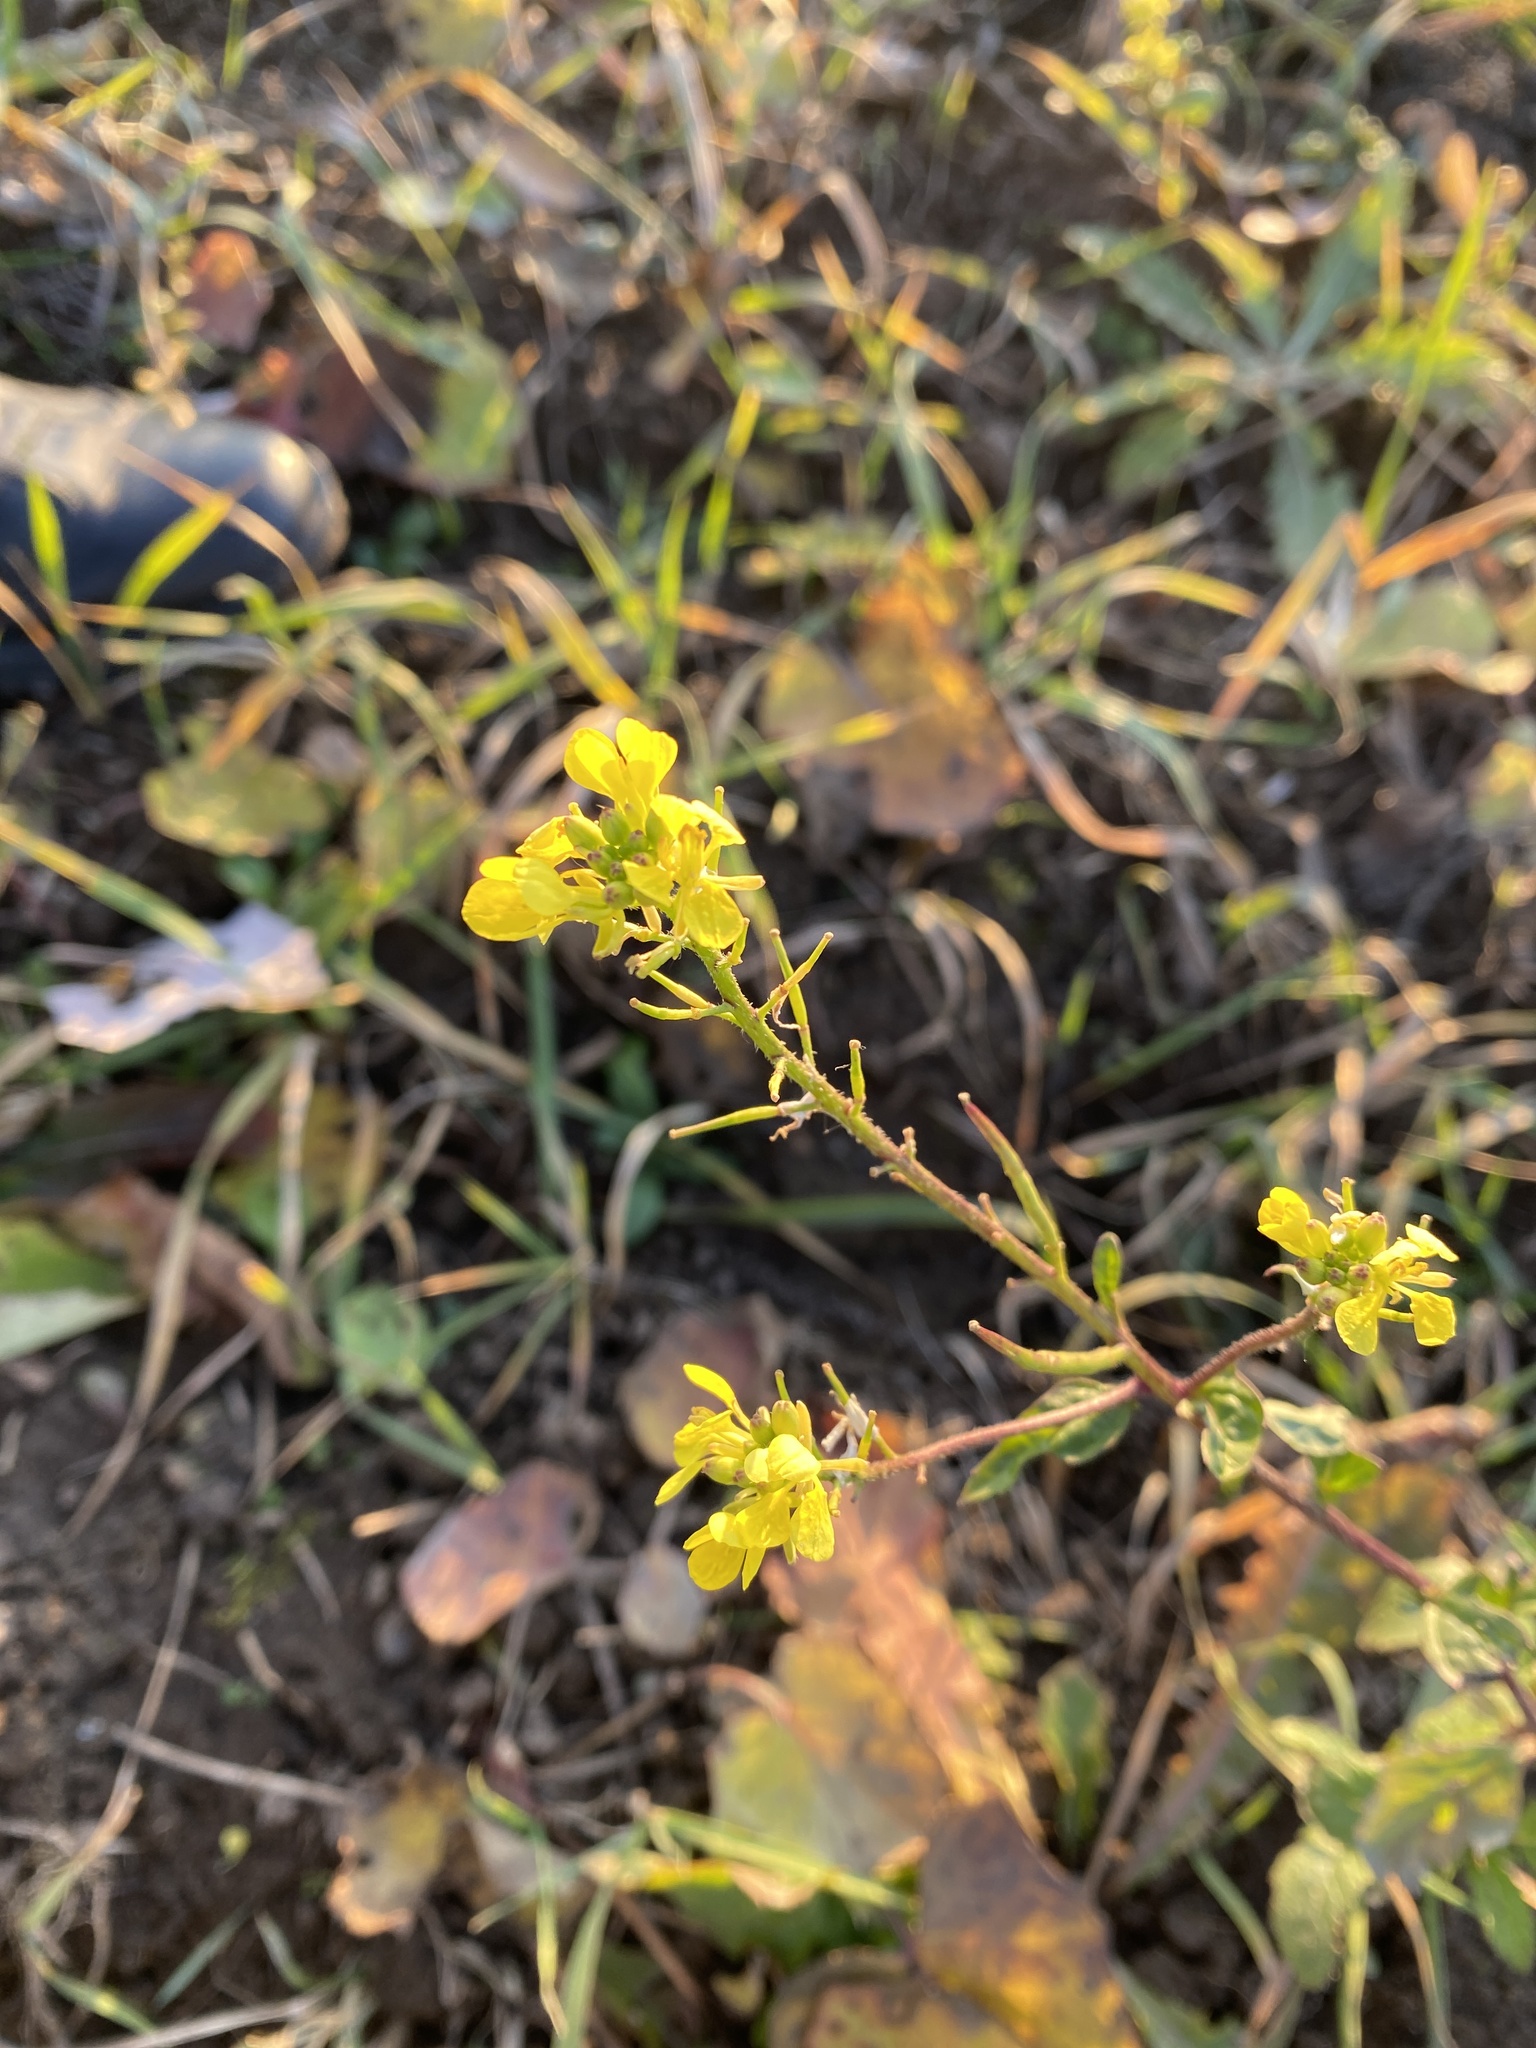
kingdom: Plantae
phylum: Tracheophyta
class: Magnoliopsida
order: Brassicales
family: Brassicaceae
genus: Sinapis
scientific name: Sinapis arvensis
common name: Charlock
